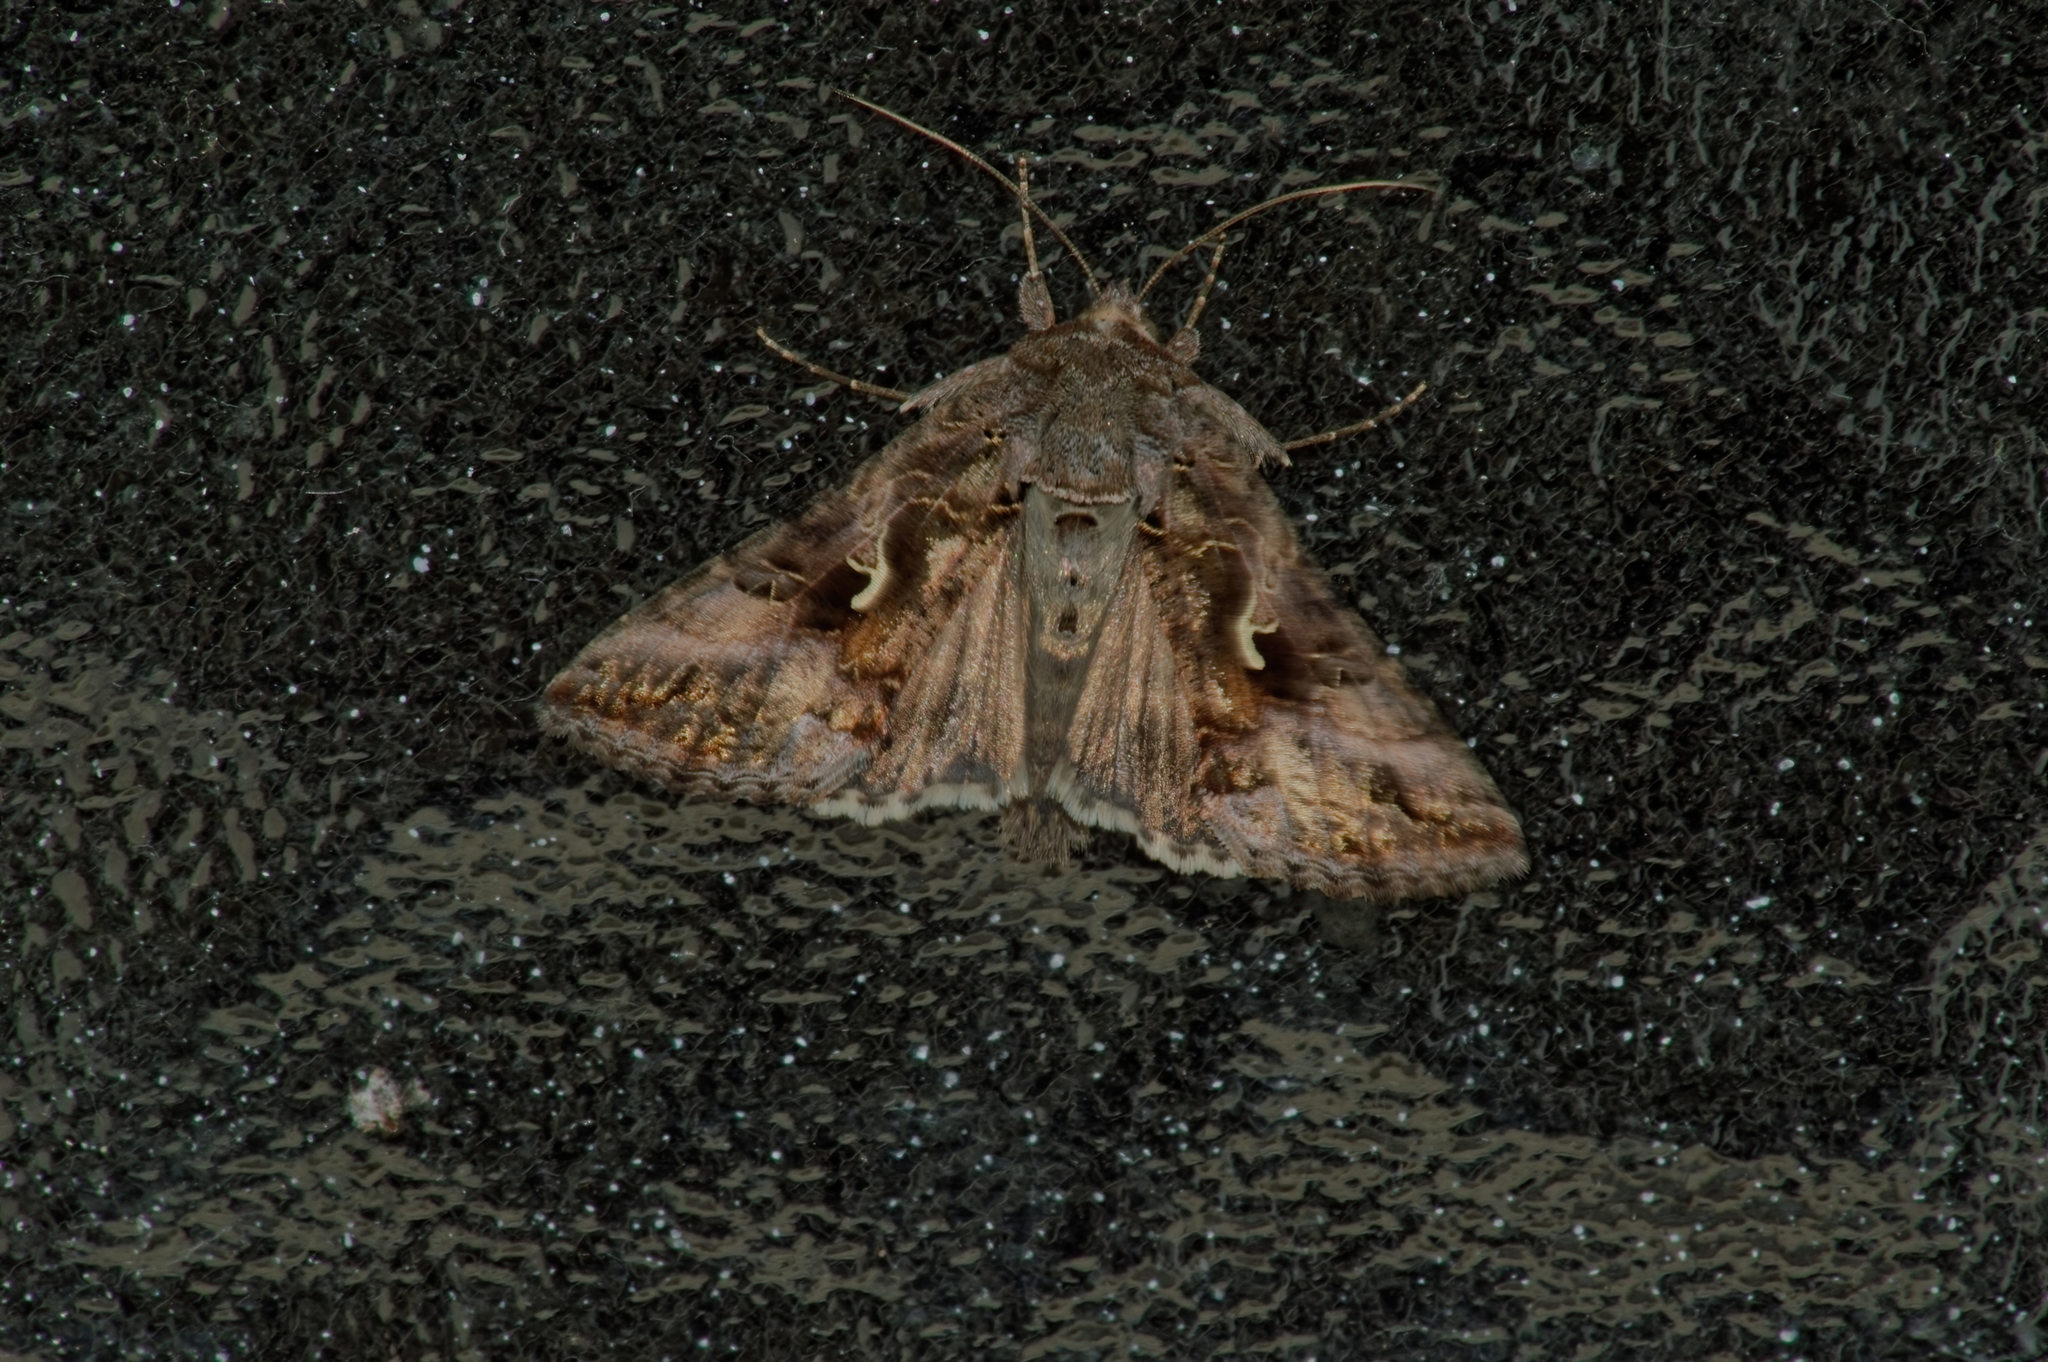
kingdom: Animalia
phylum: Arthropoda
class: Insecta
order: Lepidoptera
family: Noctuidae
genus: Autographa
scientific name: Autographa gamma
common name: Silver y
